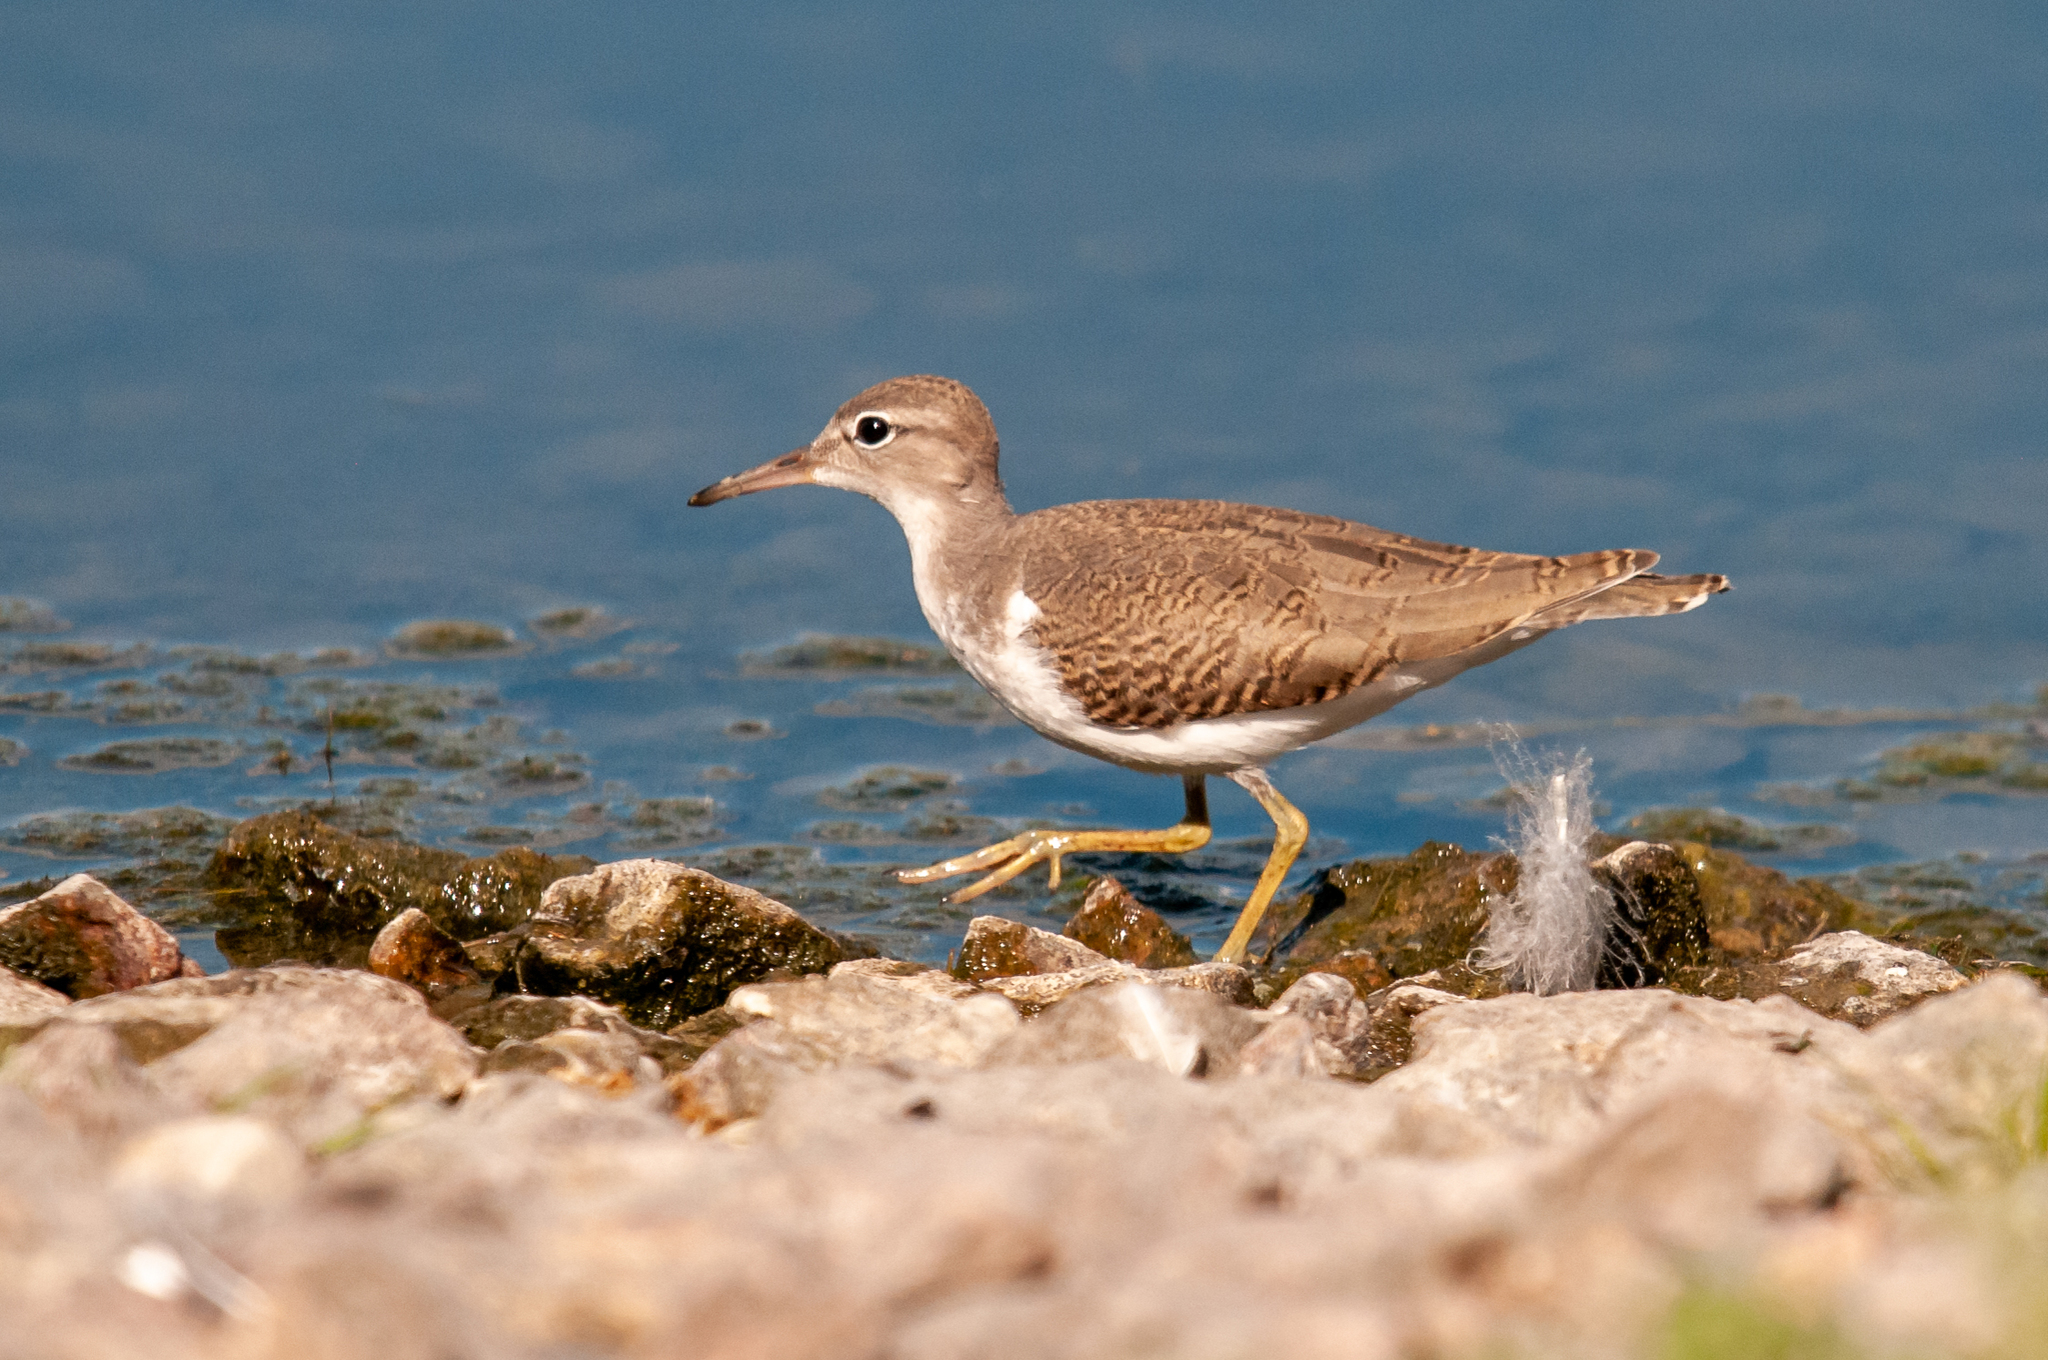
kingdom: Animalia
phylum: Chordata
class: Aves
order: Charadriiformes
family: Scolopacidae
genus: Actitis
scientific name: Actitis macularius
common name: Spotted sandpiper
